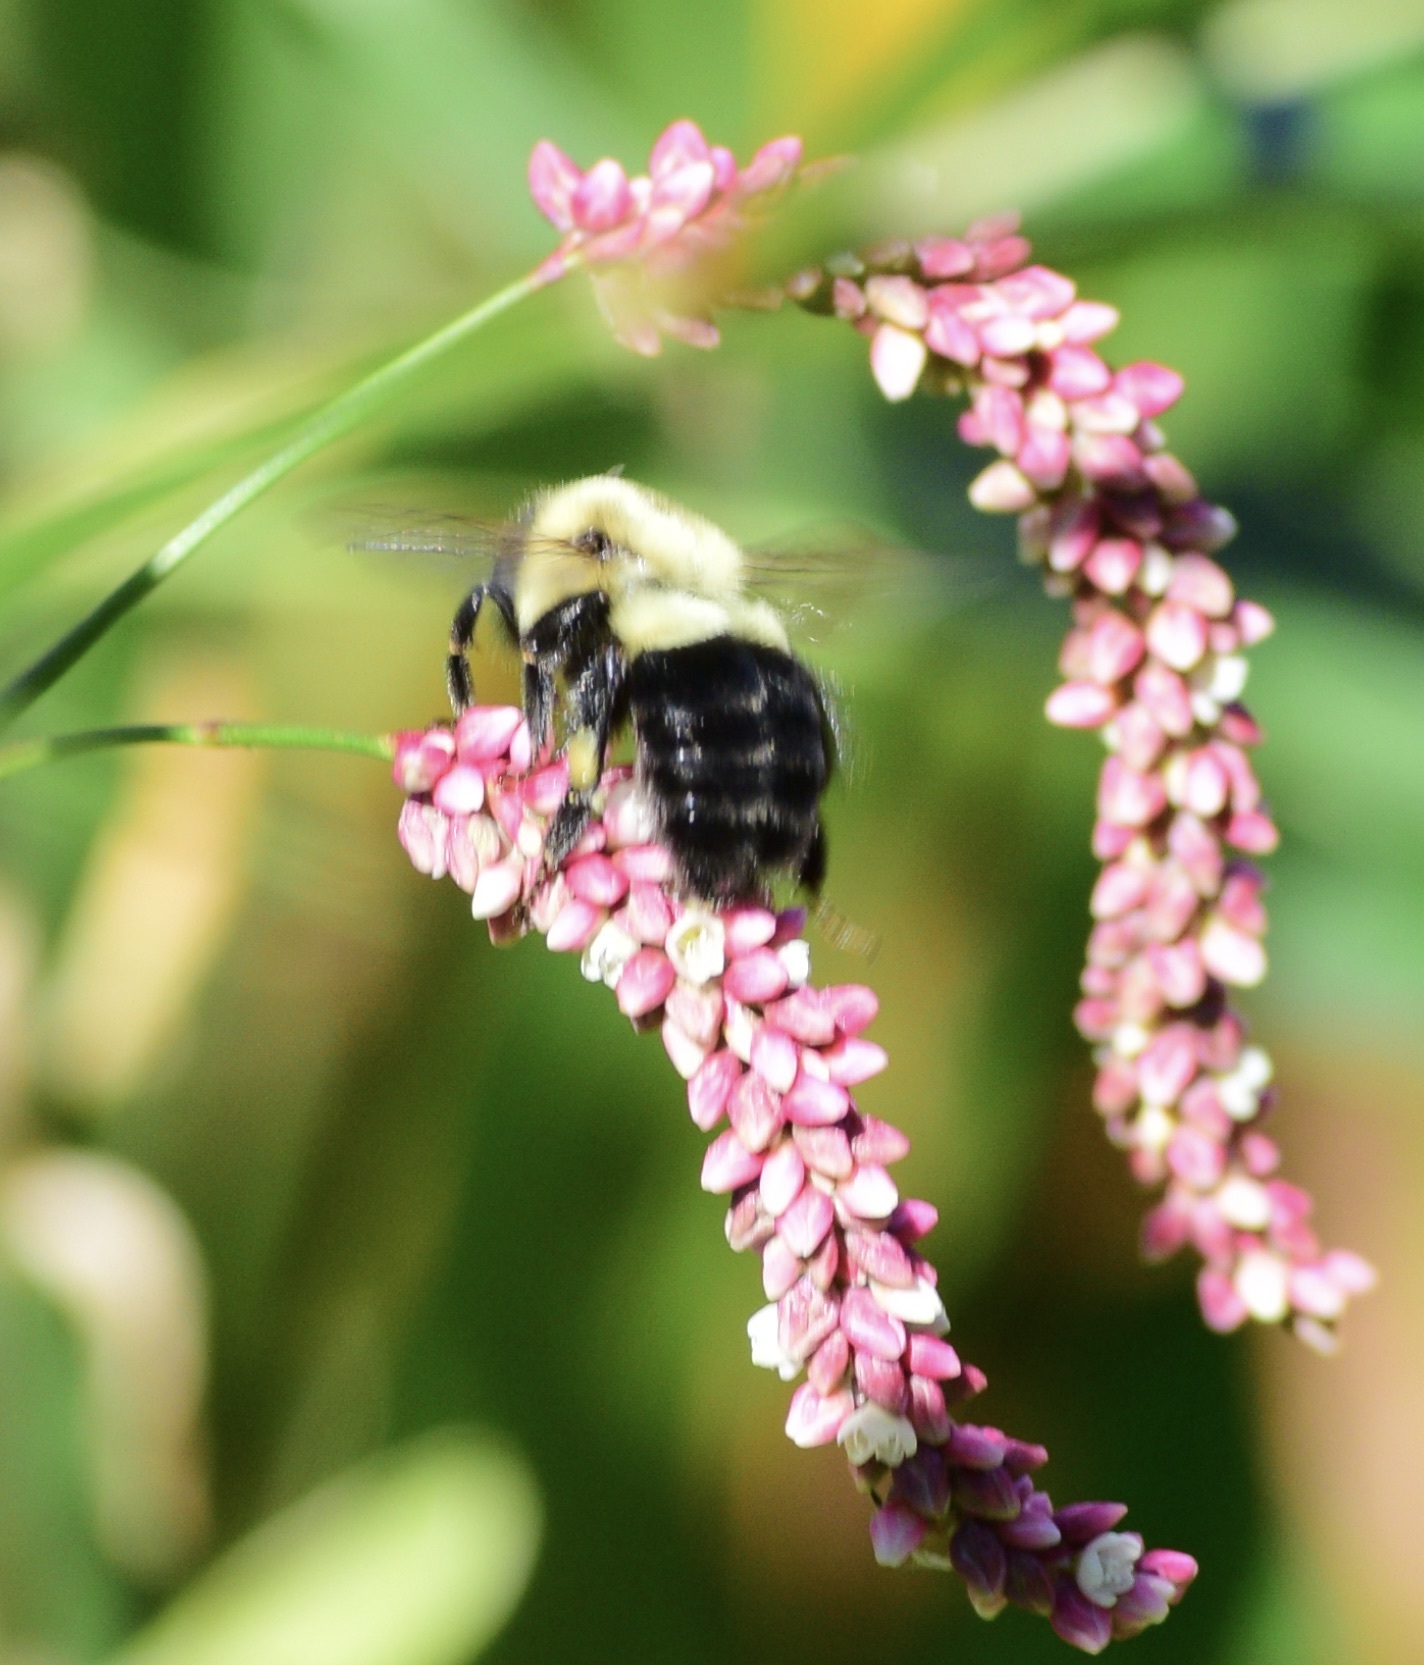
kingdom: Animalia
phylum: Arthropoda
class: Insecta
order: Hymenoptera
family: Apidae
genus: Bombus
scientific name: Bombus impatiens
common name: Common eastern bumble bee
